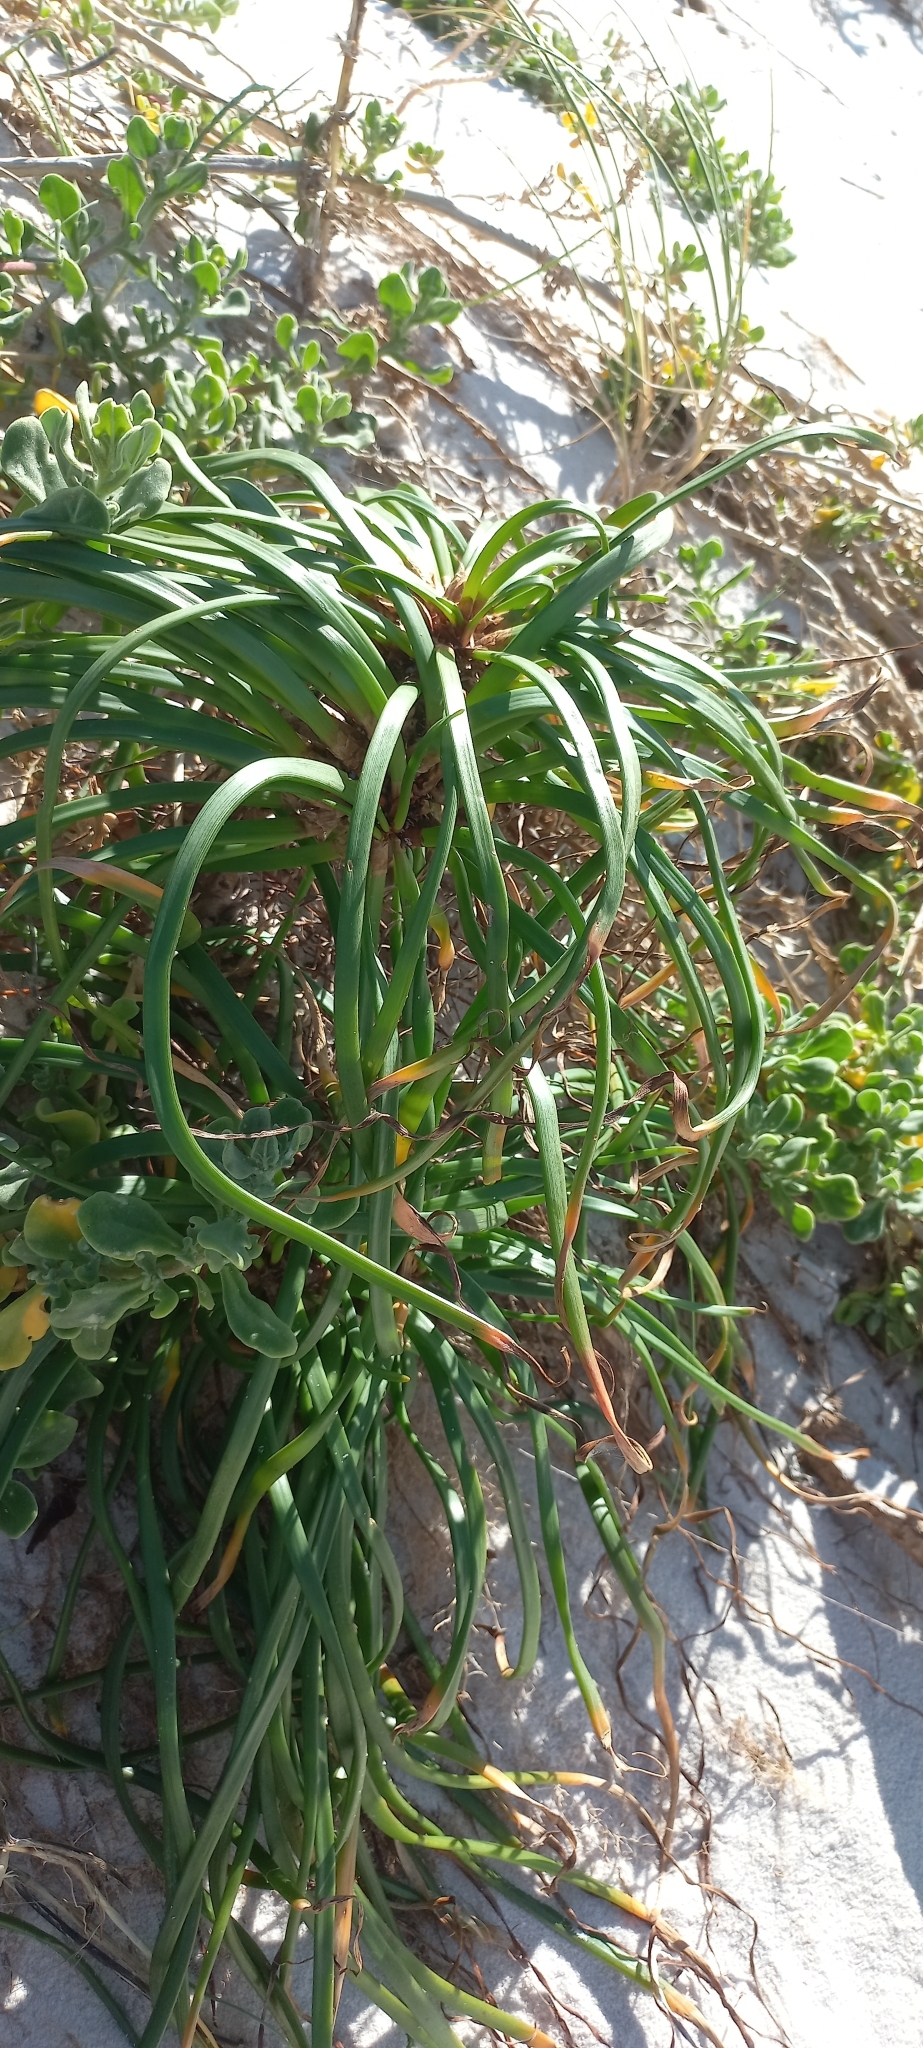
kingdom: Plantae
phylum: Tracheophyta
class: Liliopsida
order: Asparagales
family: Asphodelaceae
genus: Trachyandra
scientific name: Trachyandra divaricata
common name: Dune onionweed
